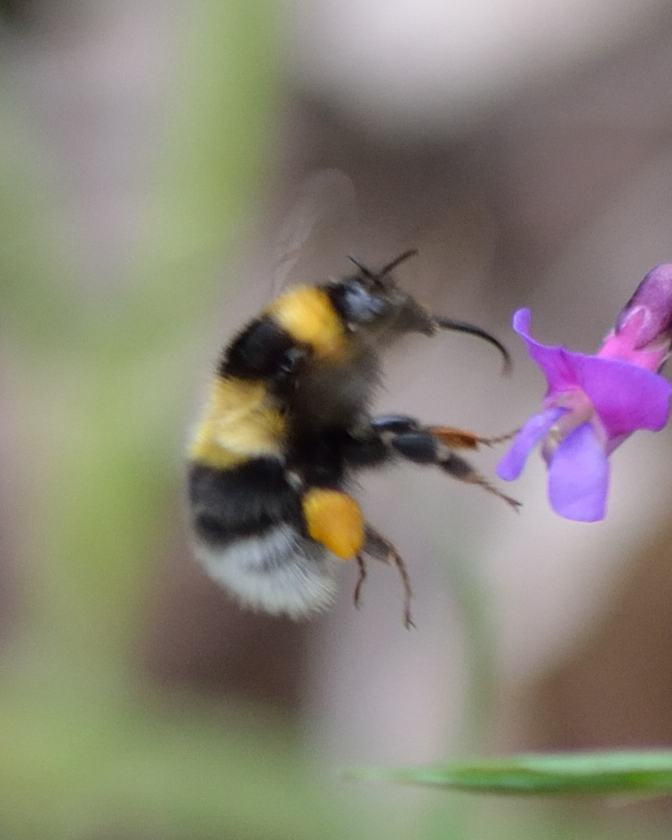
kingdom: Animalia
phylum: Arthropoda
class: Insecta
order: Hymenoptera
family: Apidae
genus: Bombus
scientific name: Bombus hortorum
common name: Garden bumblebee
